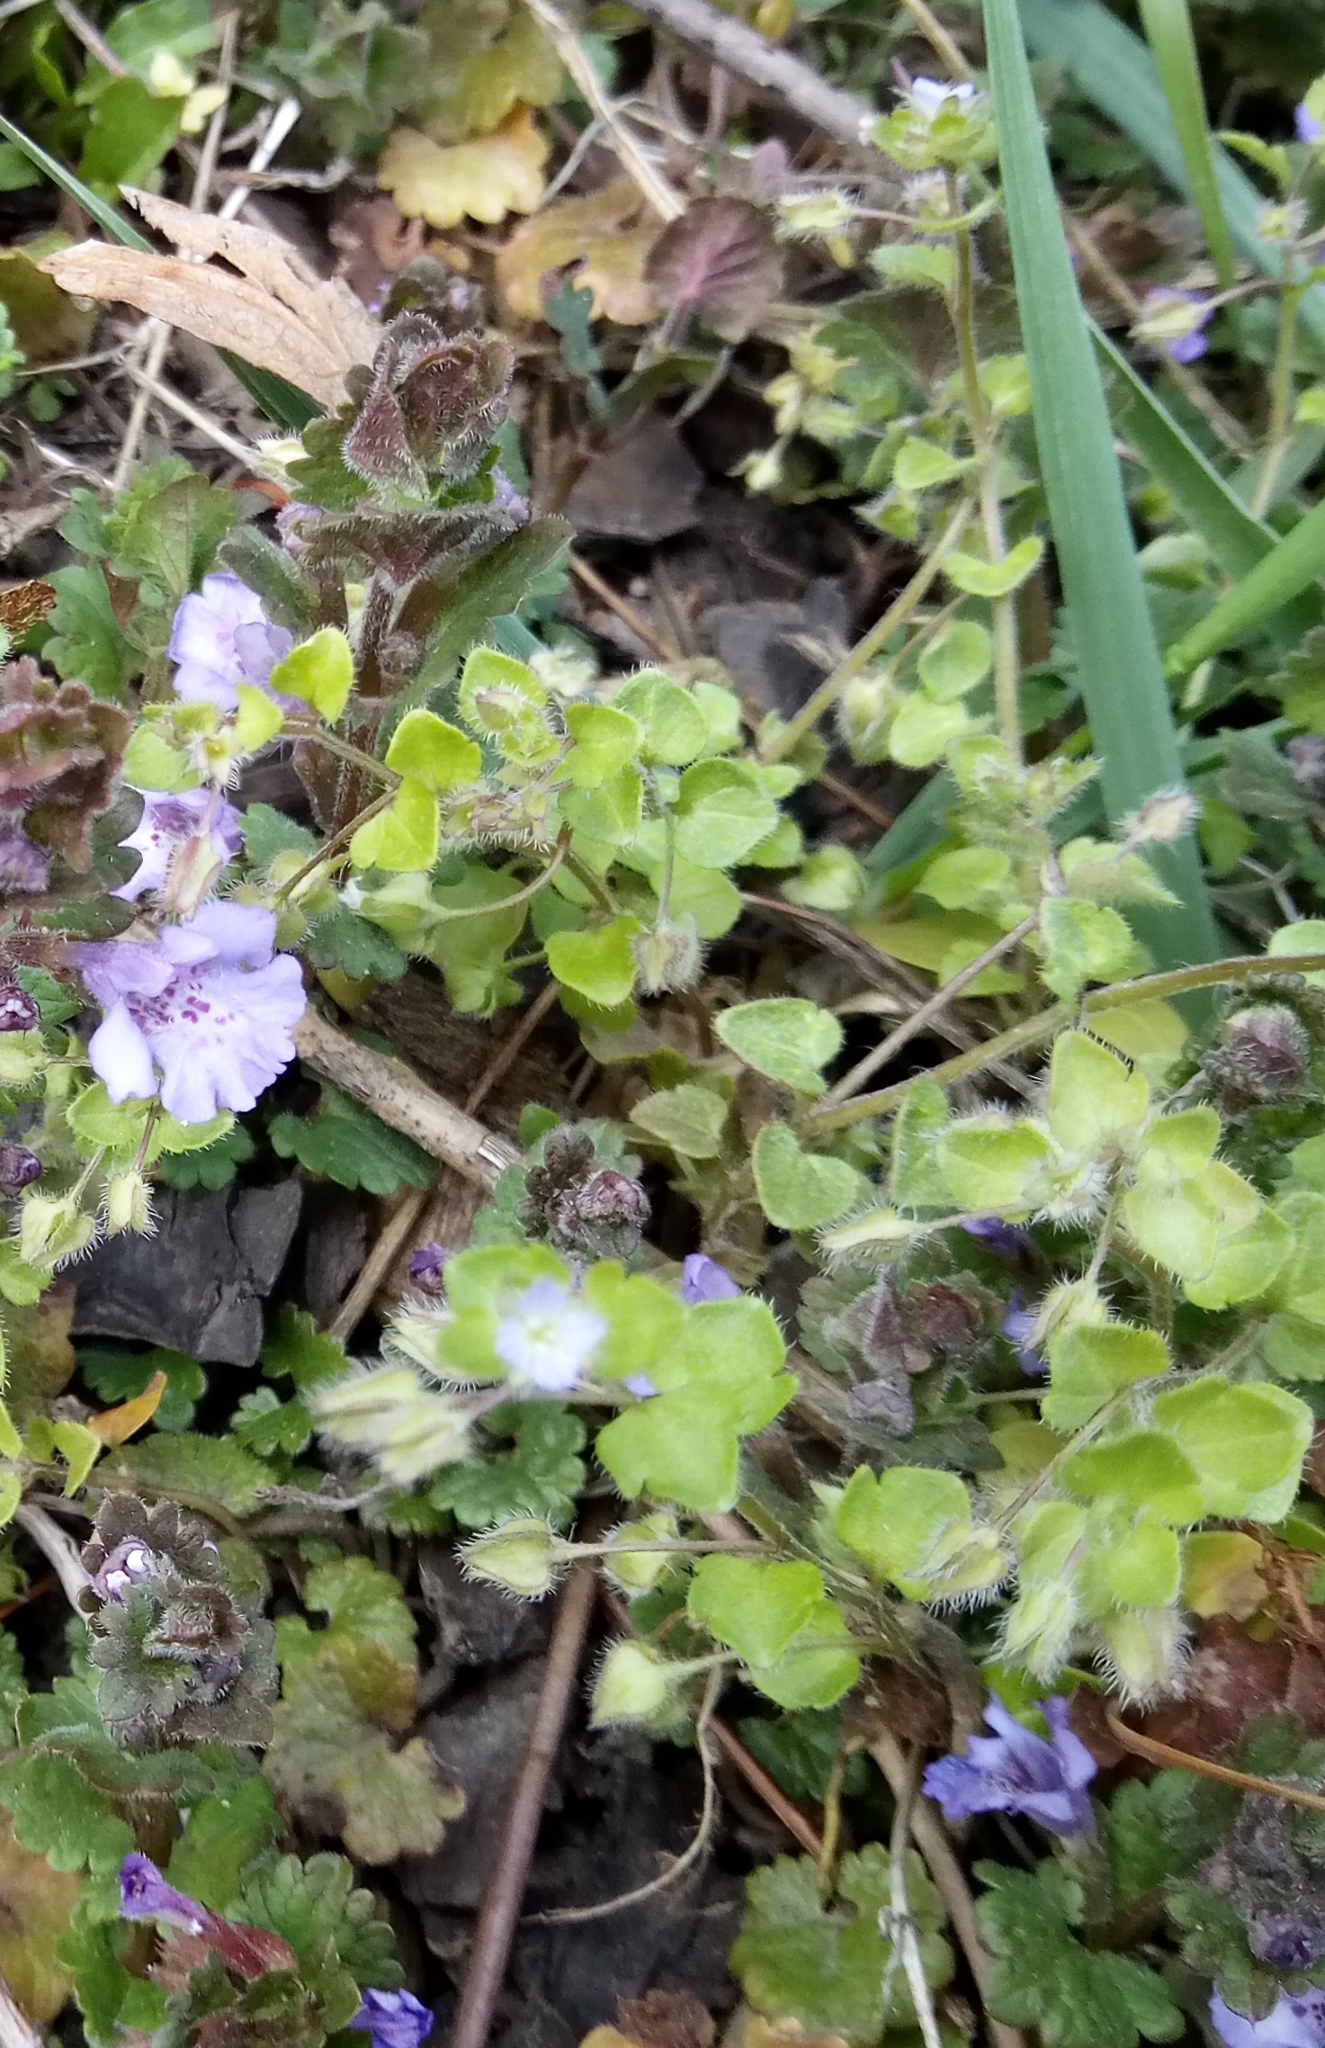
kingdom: Plantae
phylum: Tracheophyta
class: Magnoliopsida
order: Lamiales
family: Plantaginaceae
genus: Veronica
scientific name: Veronica sublobata
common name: False ivy-leaved speedwell
